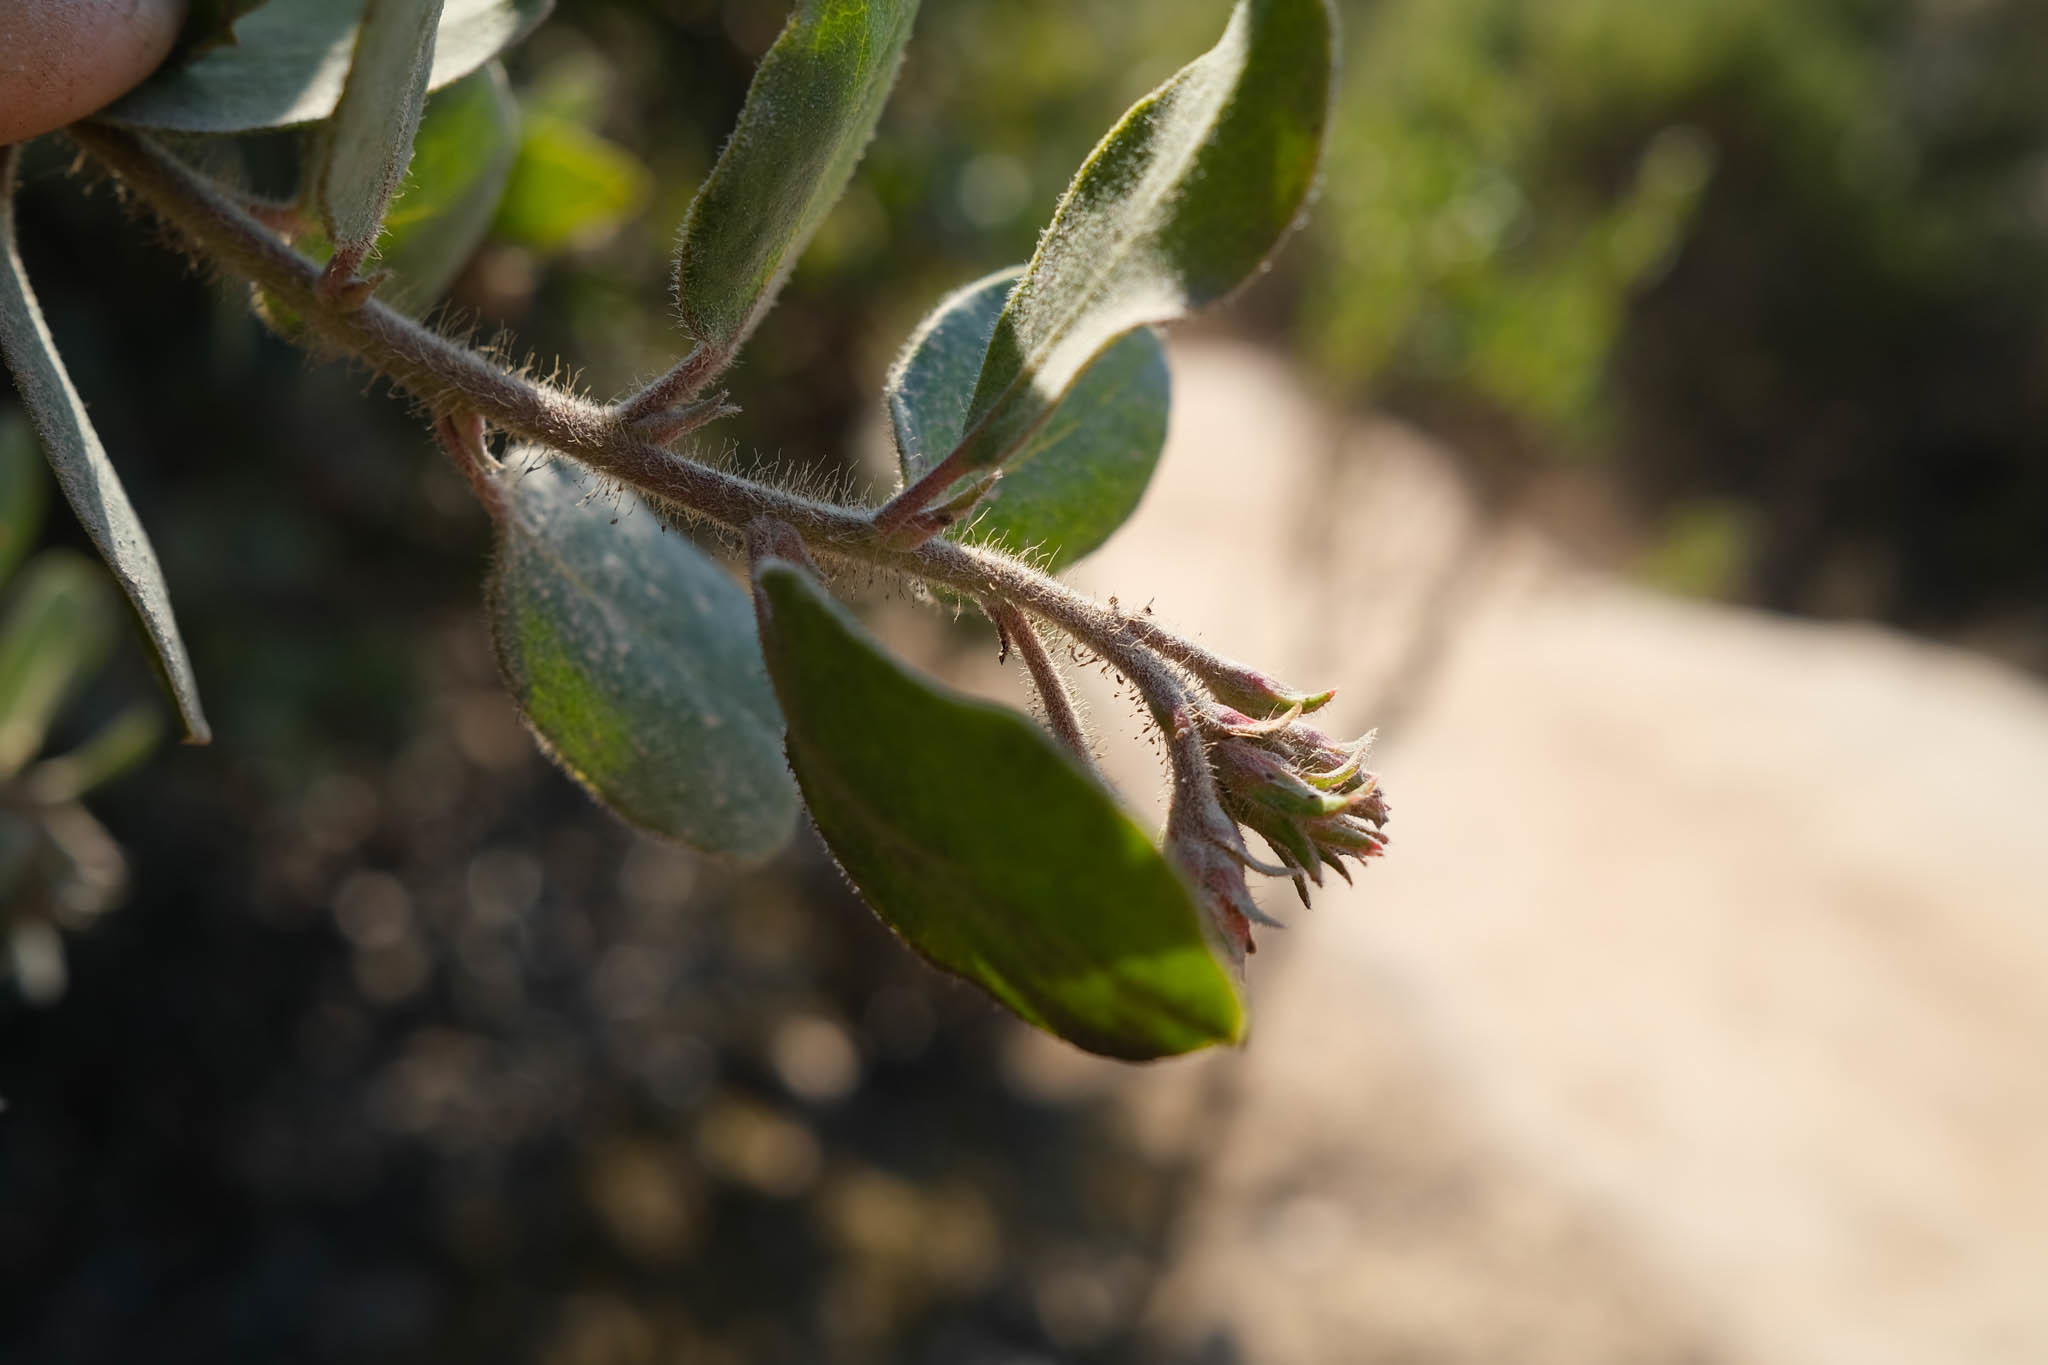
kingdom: Plantae
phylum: Tracheophyta
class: Magnoliopsida
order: Ericales
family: Ericaceae
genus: Arctostaphylos
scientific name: Arctostaphylos tomentosa
